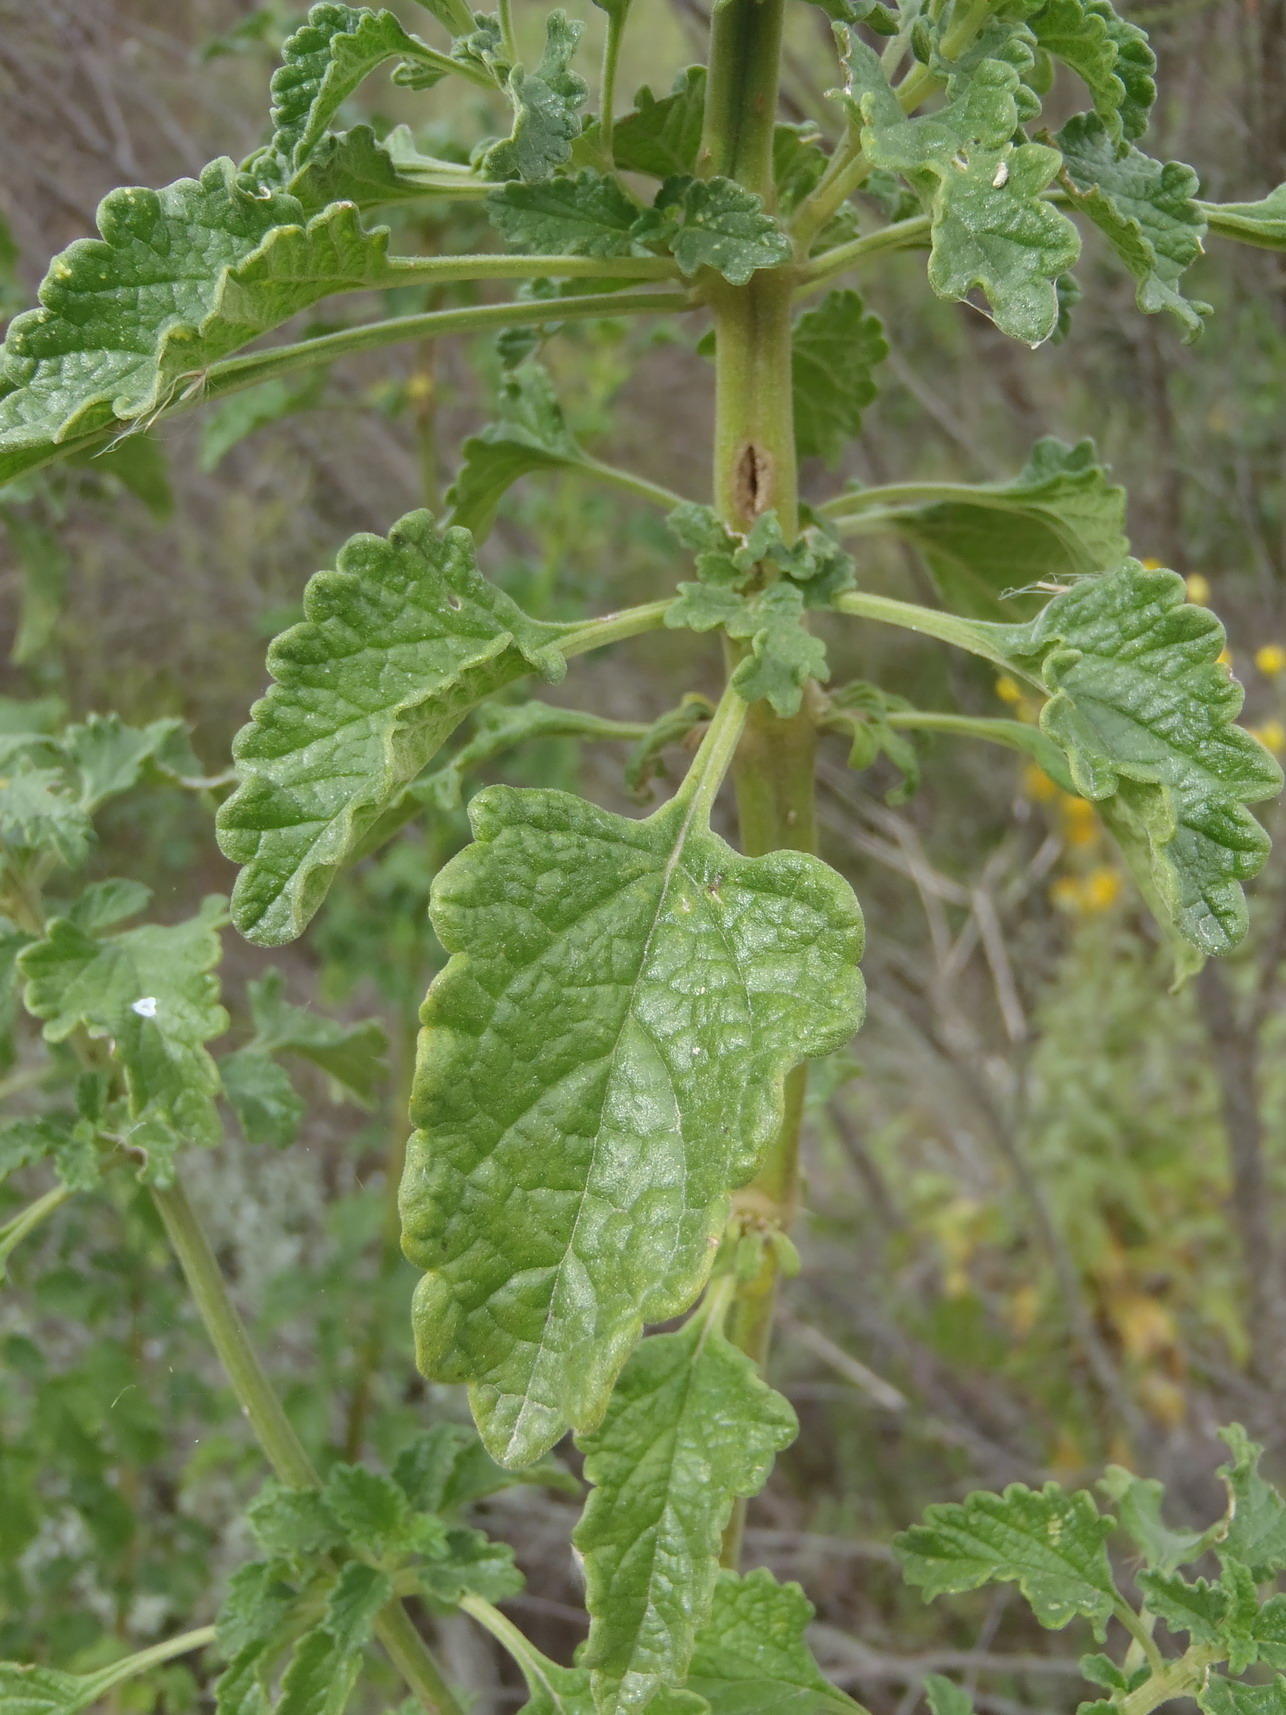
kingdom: Plantae
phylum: Tracheophyta
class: Magnoliopsida
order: Lamiales
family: Lamiaceae
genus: Leonotis
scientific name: Leonotis ocymifolia
